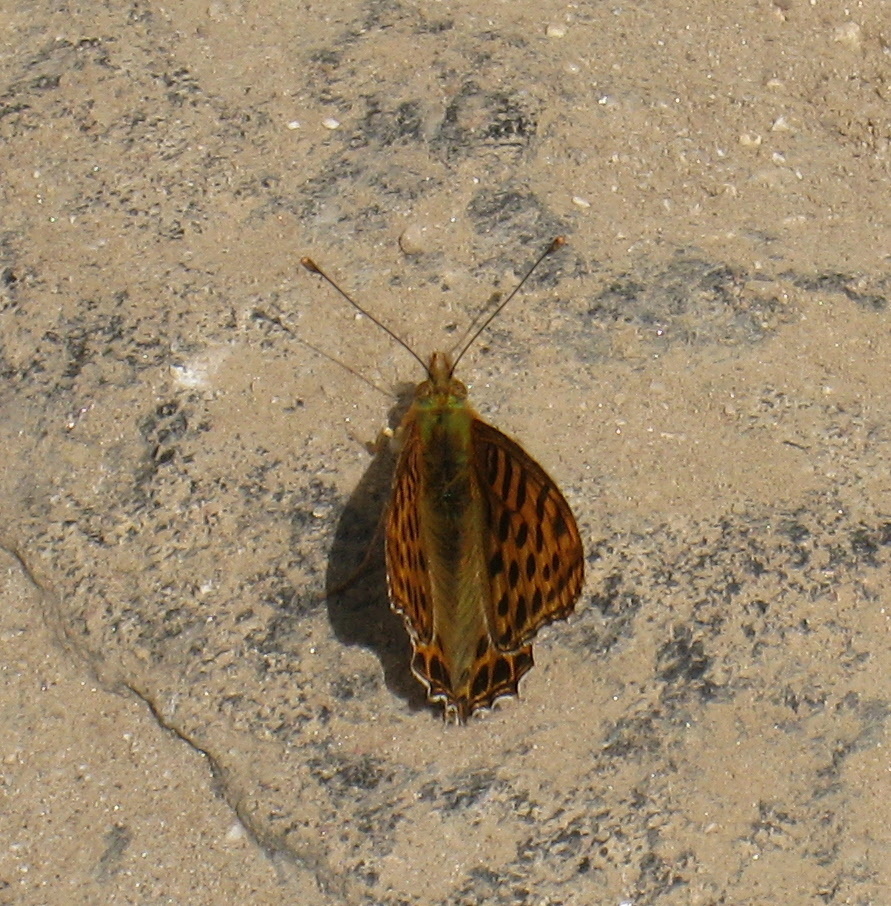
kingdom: Animalia
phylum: Arthropoda
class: Insecta
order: Lepidoptera
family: Nymphalidae
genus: Issoria
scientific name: Issoria
